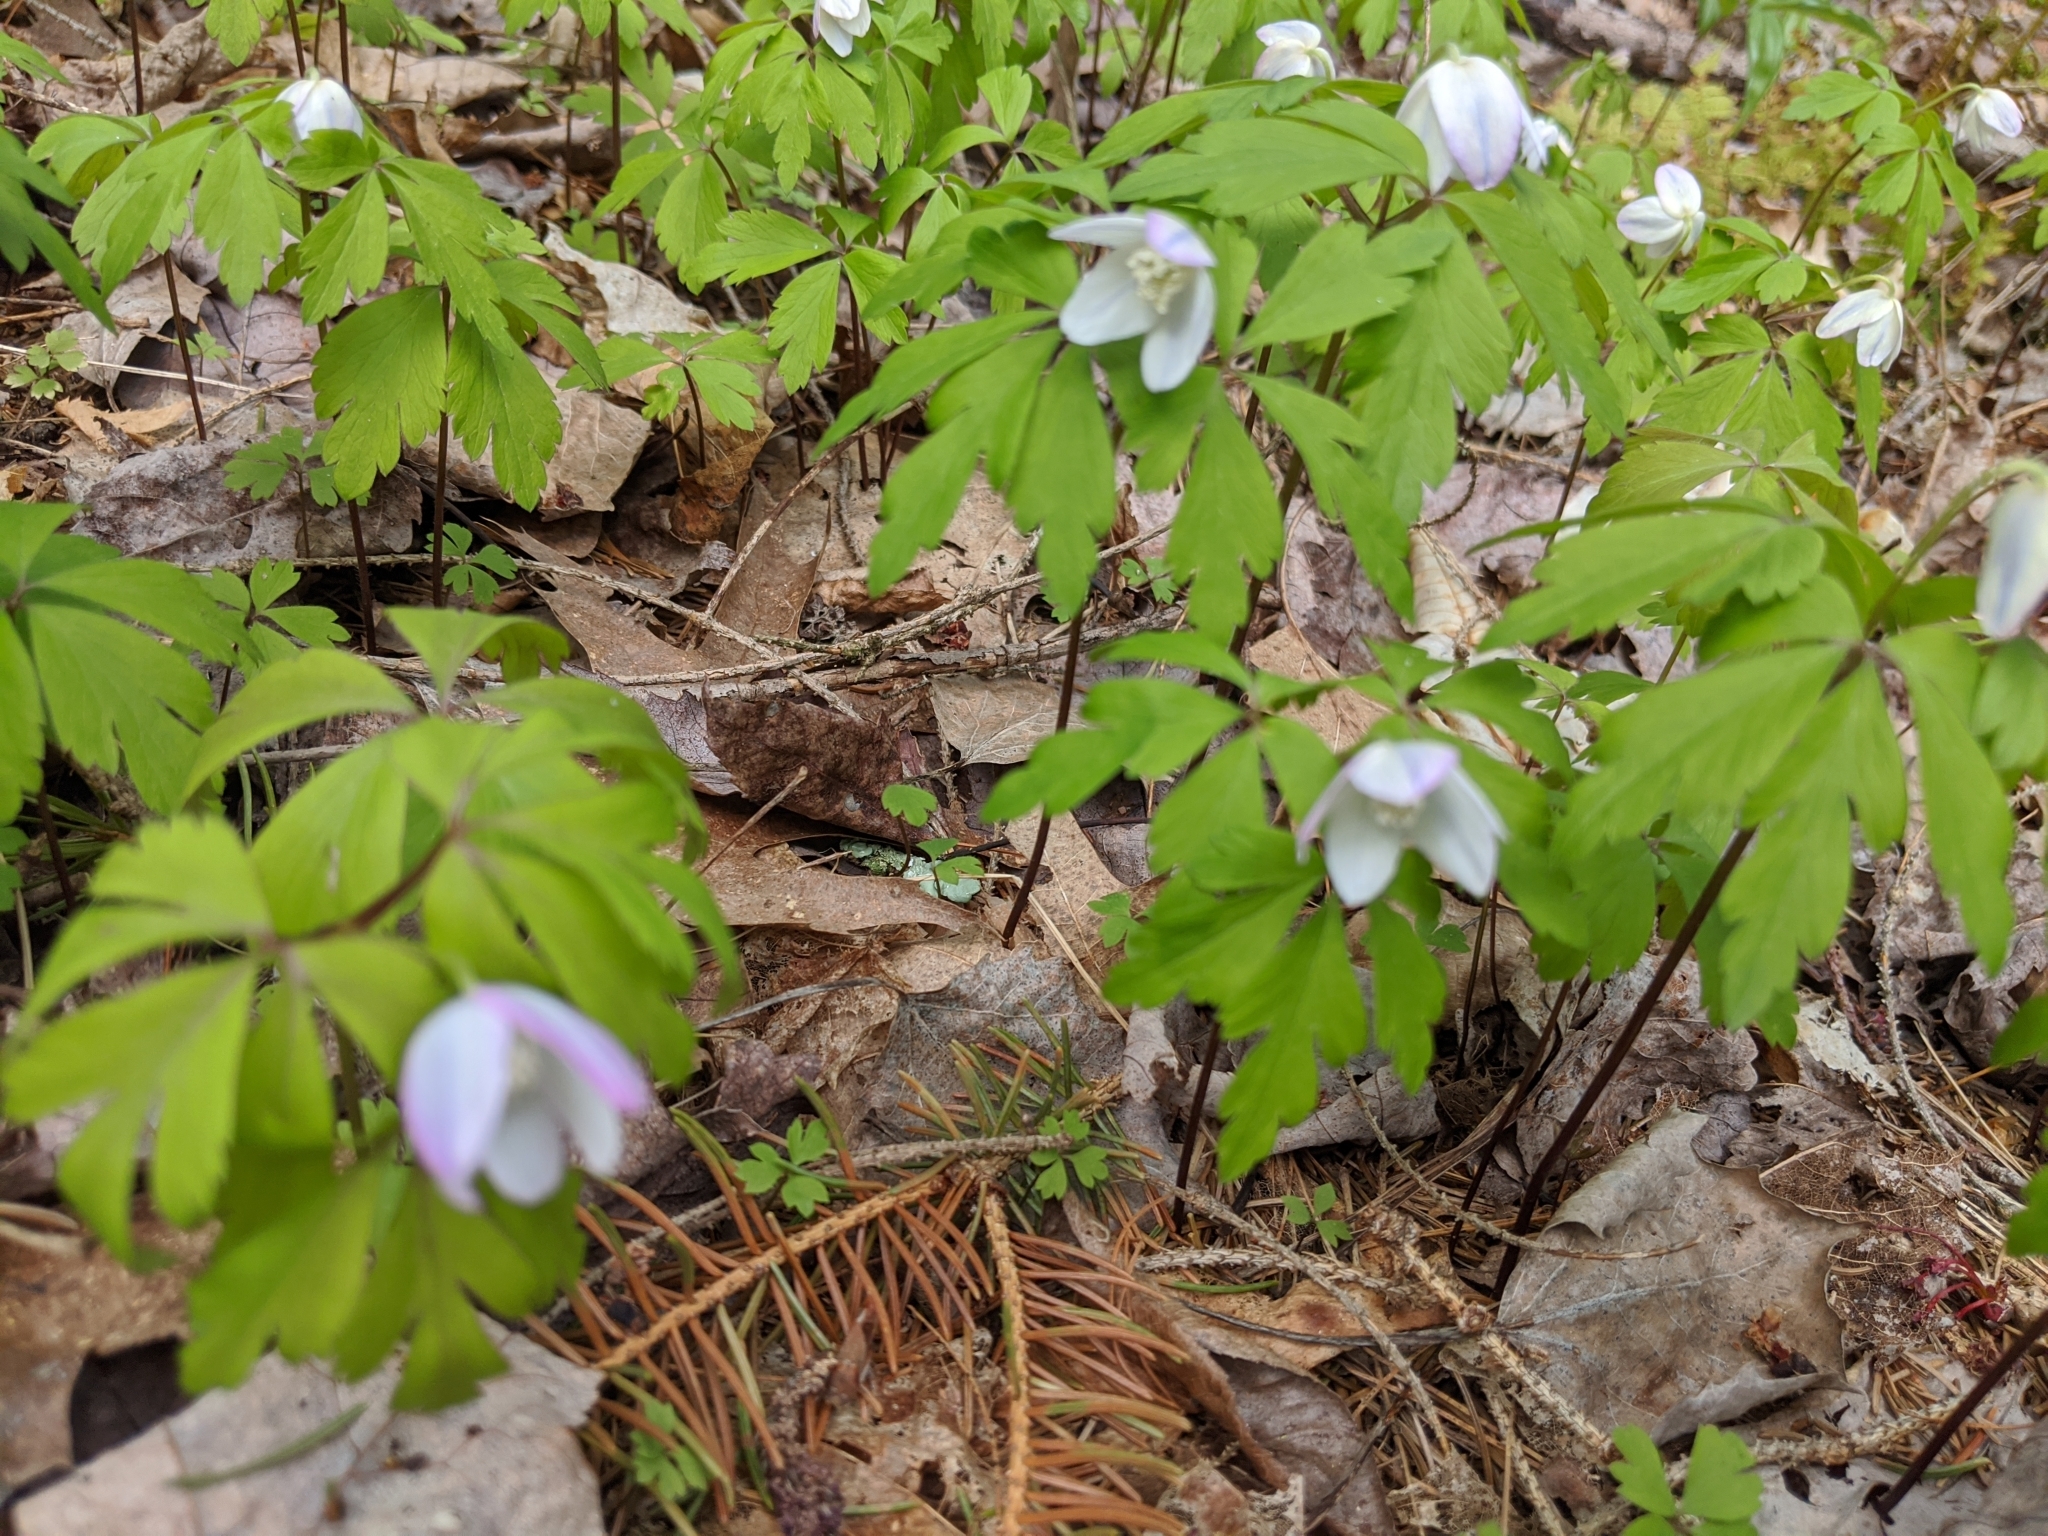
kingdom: Plantae
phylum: Tracheophyta
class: Magnoliopsida
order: Ranunculales
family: Ranunculaceae
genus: Anemone
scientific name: Anemone quinquefolia
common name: Wood anemone
